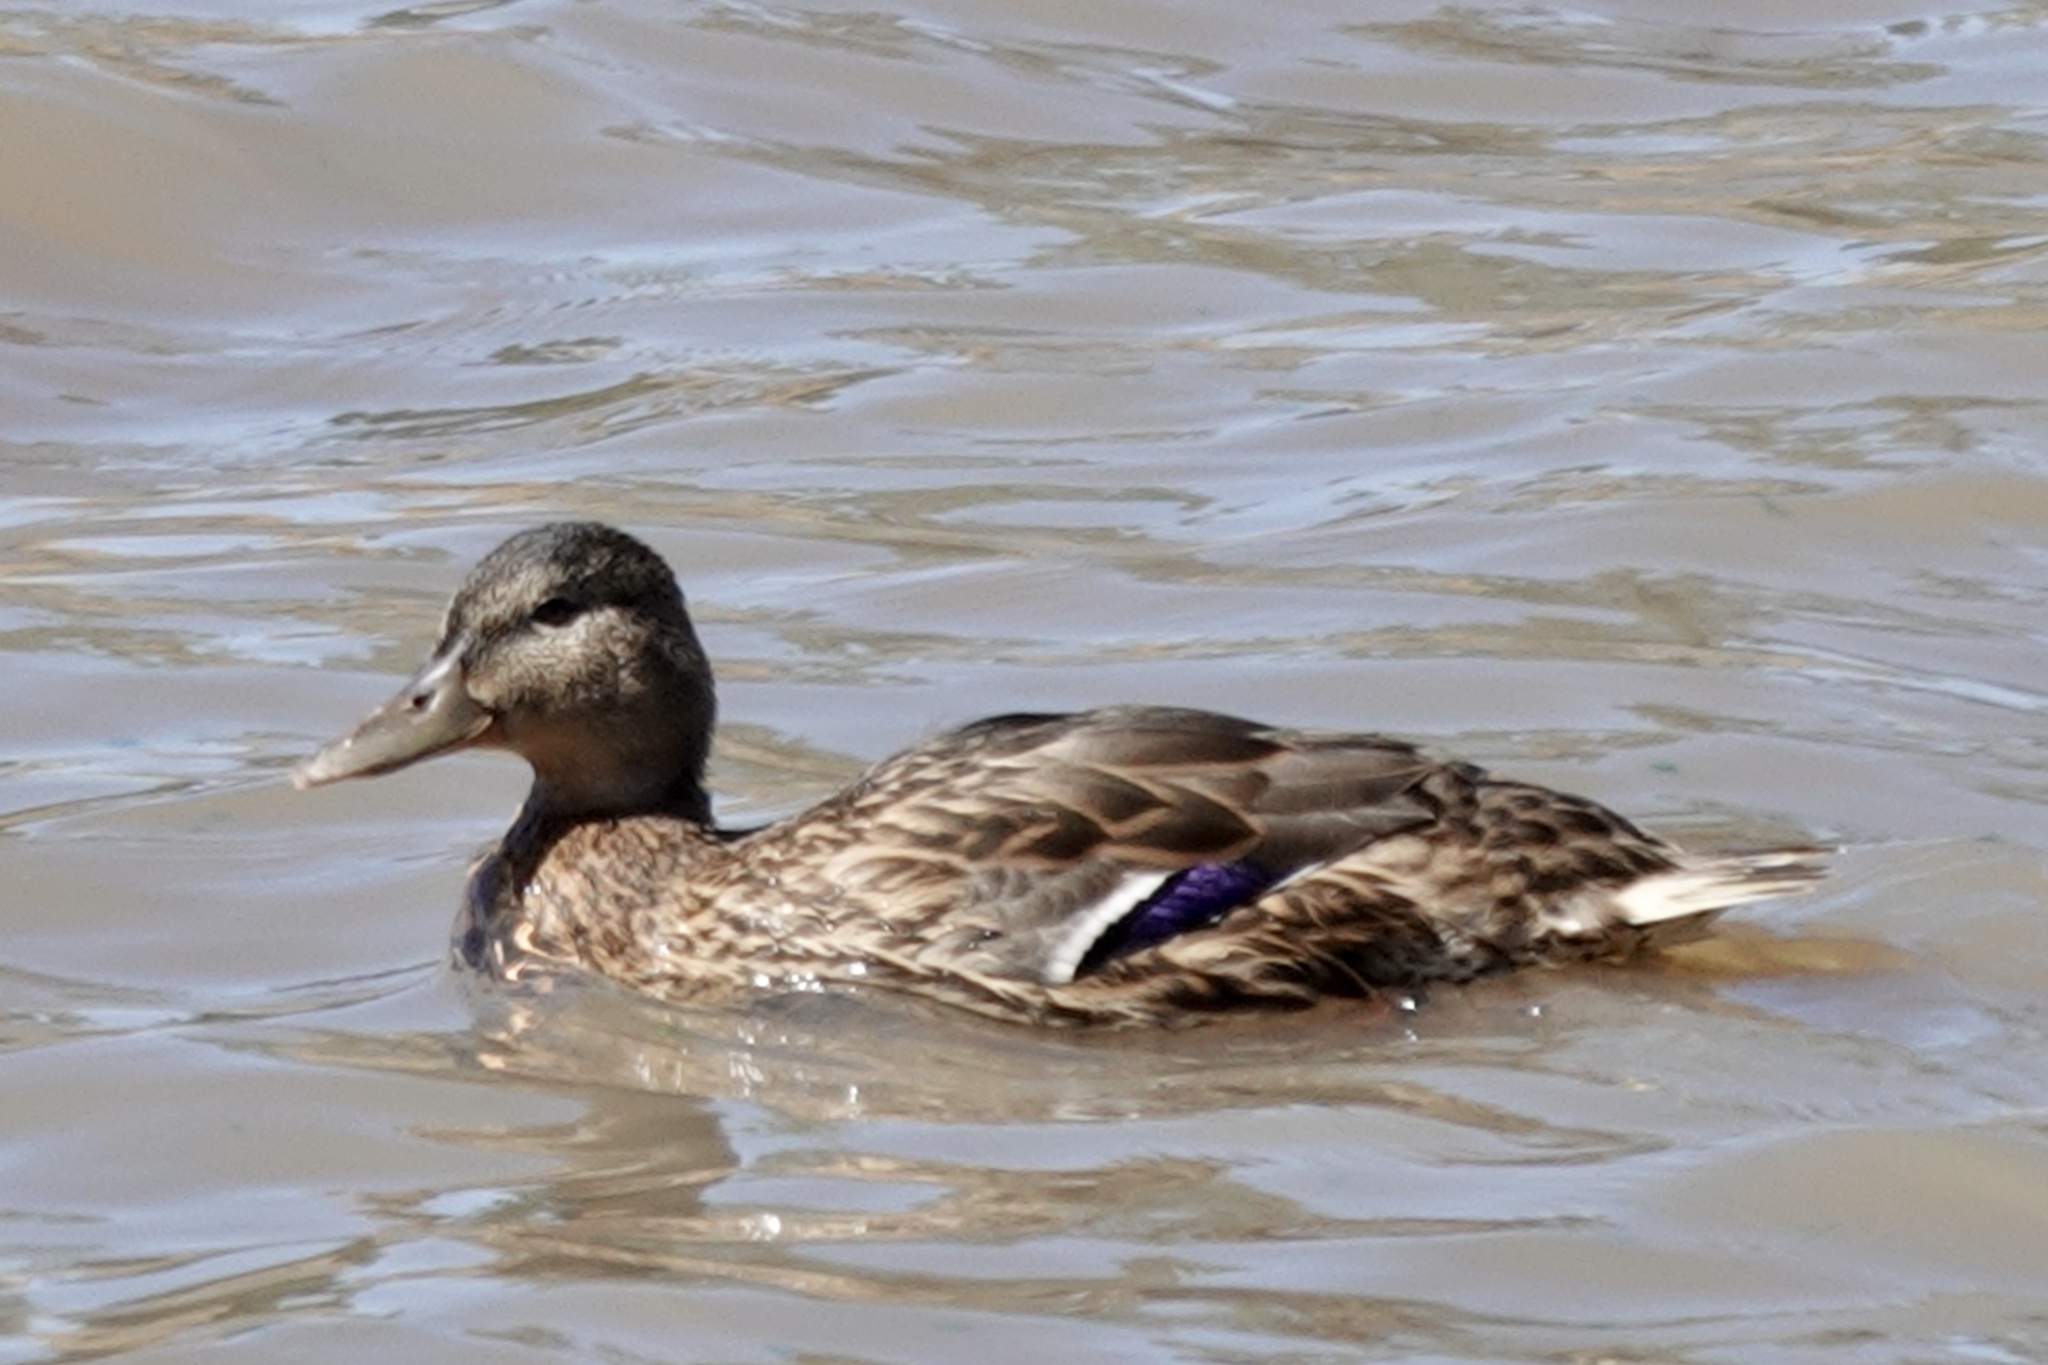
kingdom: Animalia
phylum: Chordata
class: Aves
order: Anseriformes
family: Anatidae
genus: Anas
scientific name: Anas platyrhynchos
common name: Mallard
